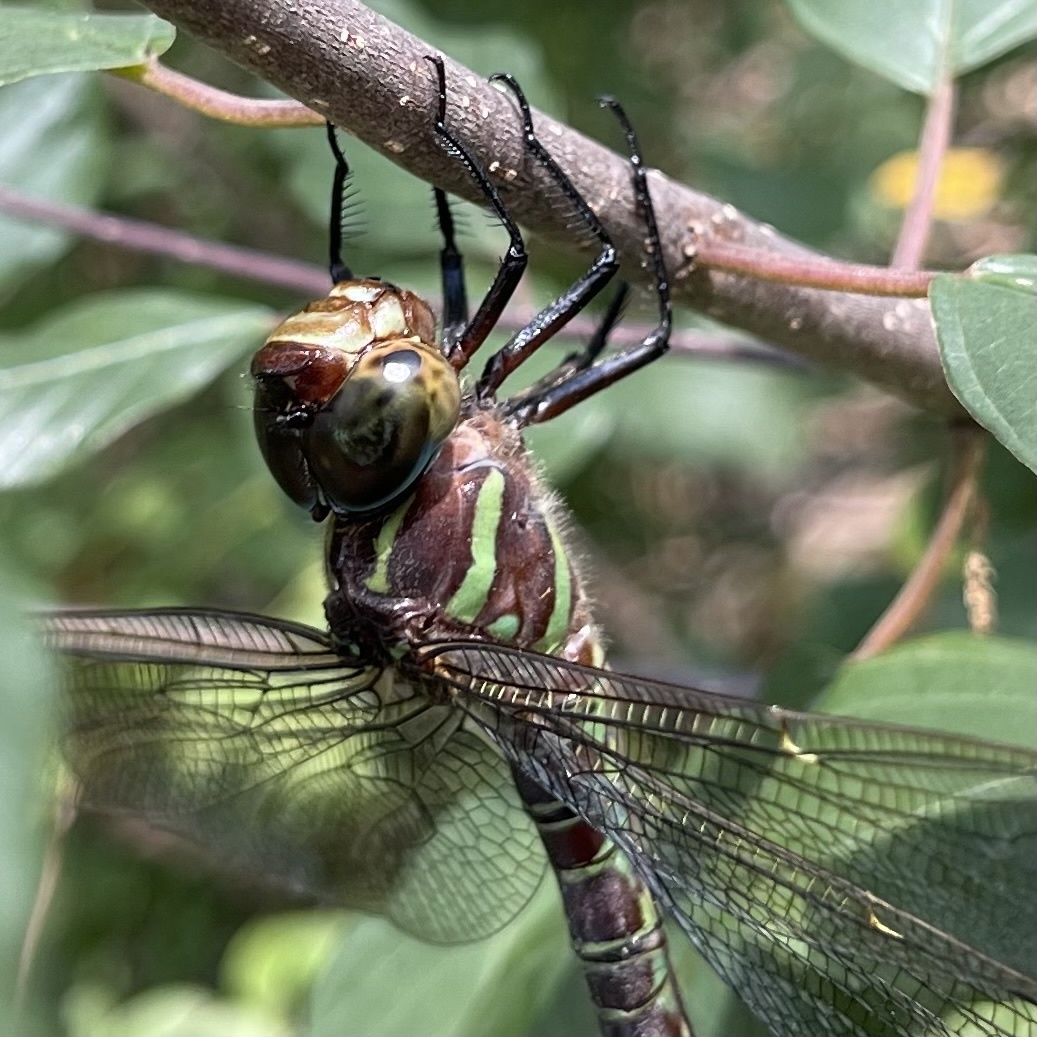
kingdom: Animalia
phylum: Arthropoda
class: Insecta
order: Odonata
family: Aeshnidae
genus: Epiaeschna
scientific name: Epiaeschna heros
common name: Swamp darner
